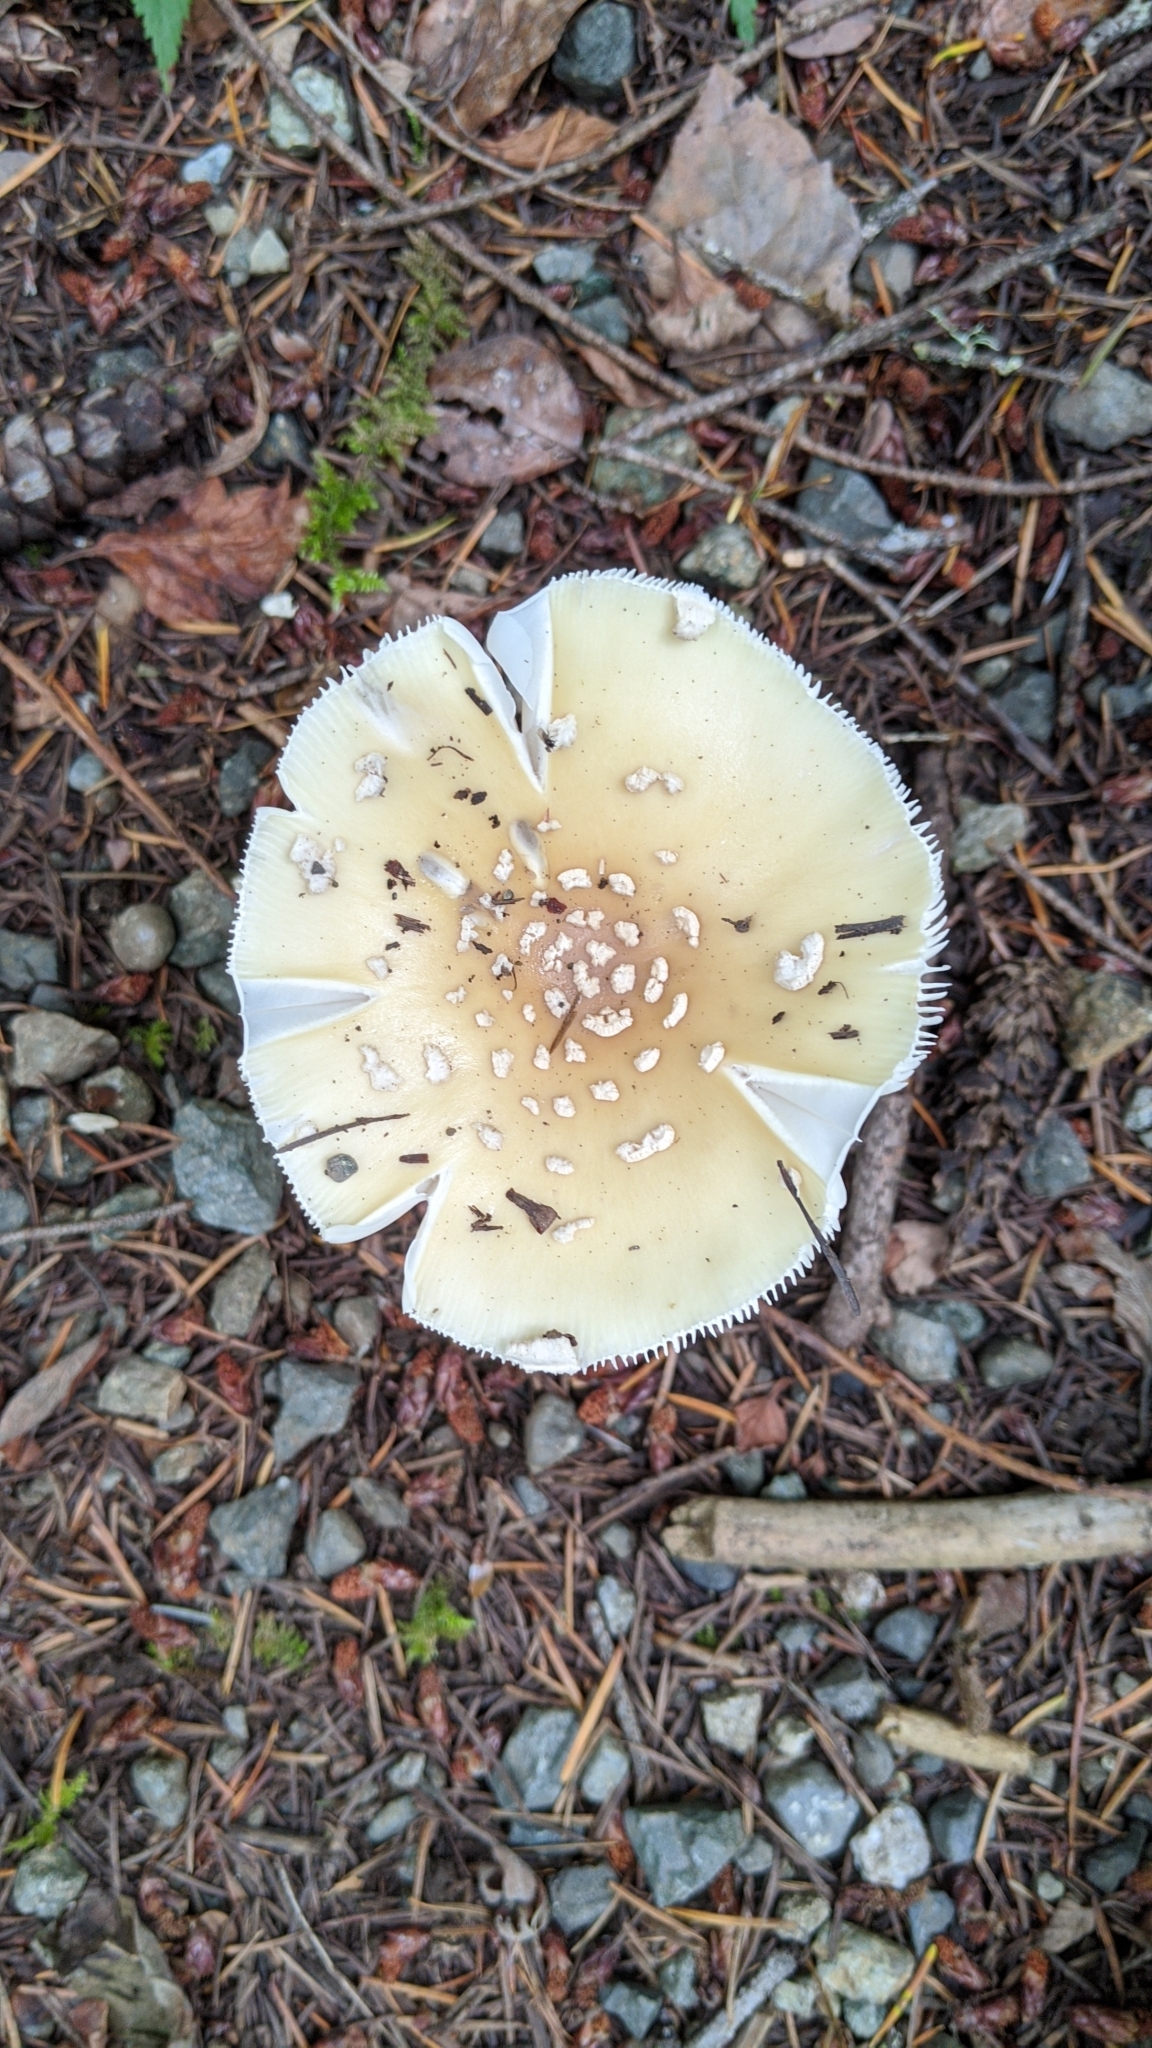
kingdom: Fungi
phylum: Basidiomycota
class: Agaricomycetes
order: Agaricales
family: Amanitaceae
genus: Amanita
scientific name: Amanita pantherinoides
